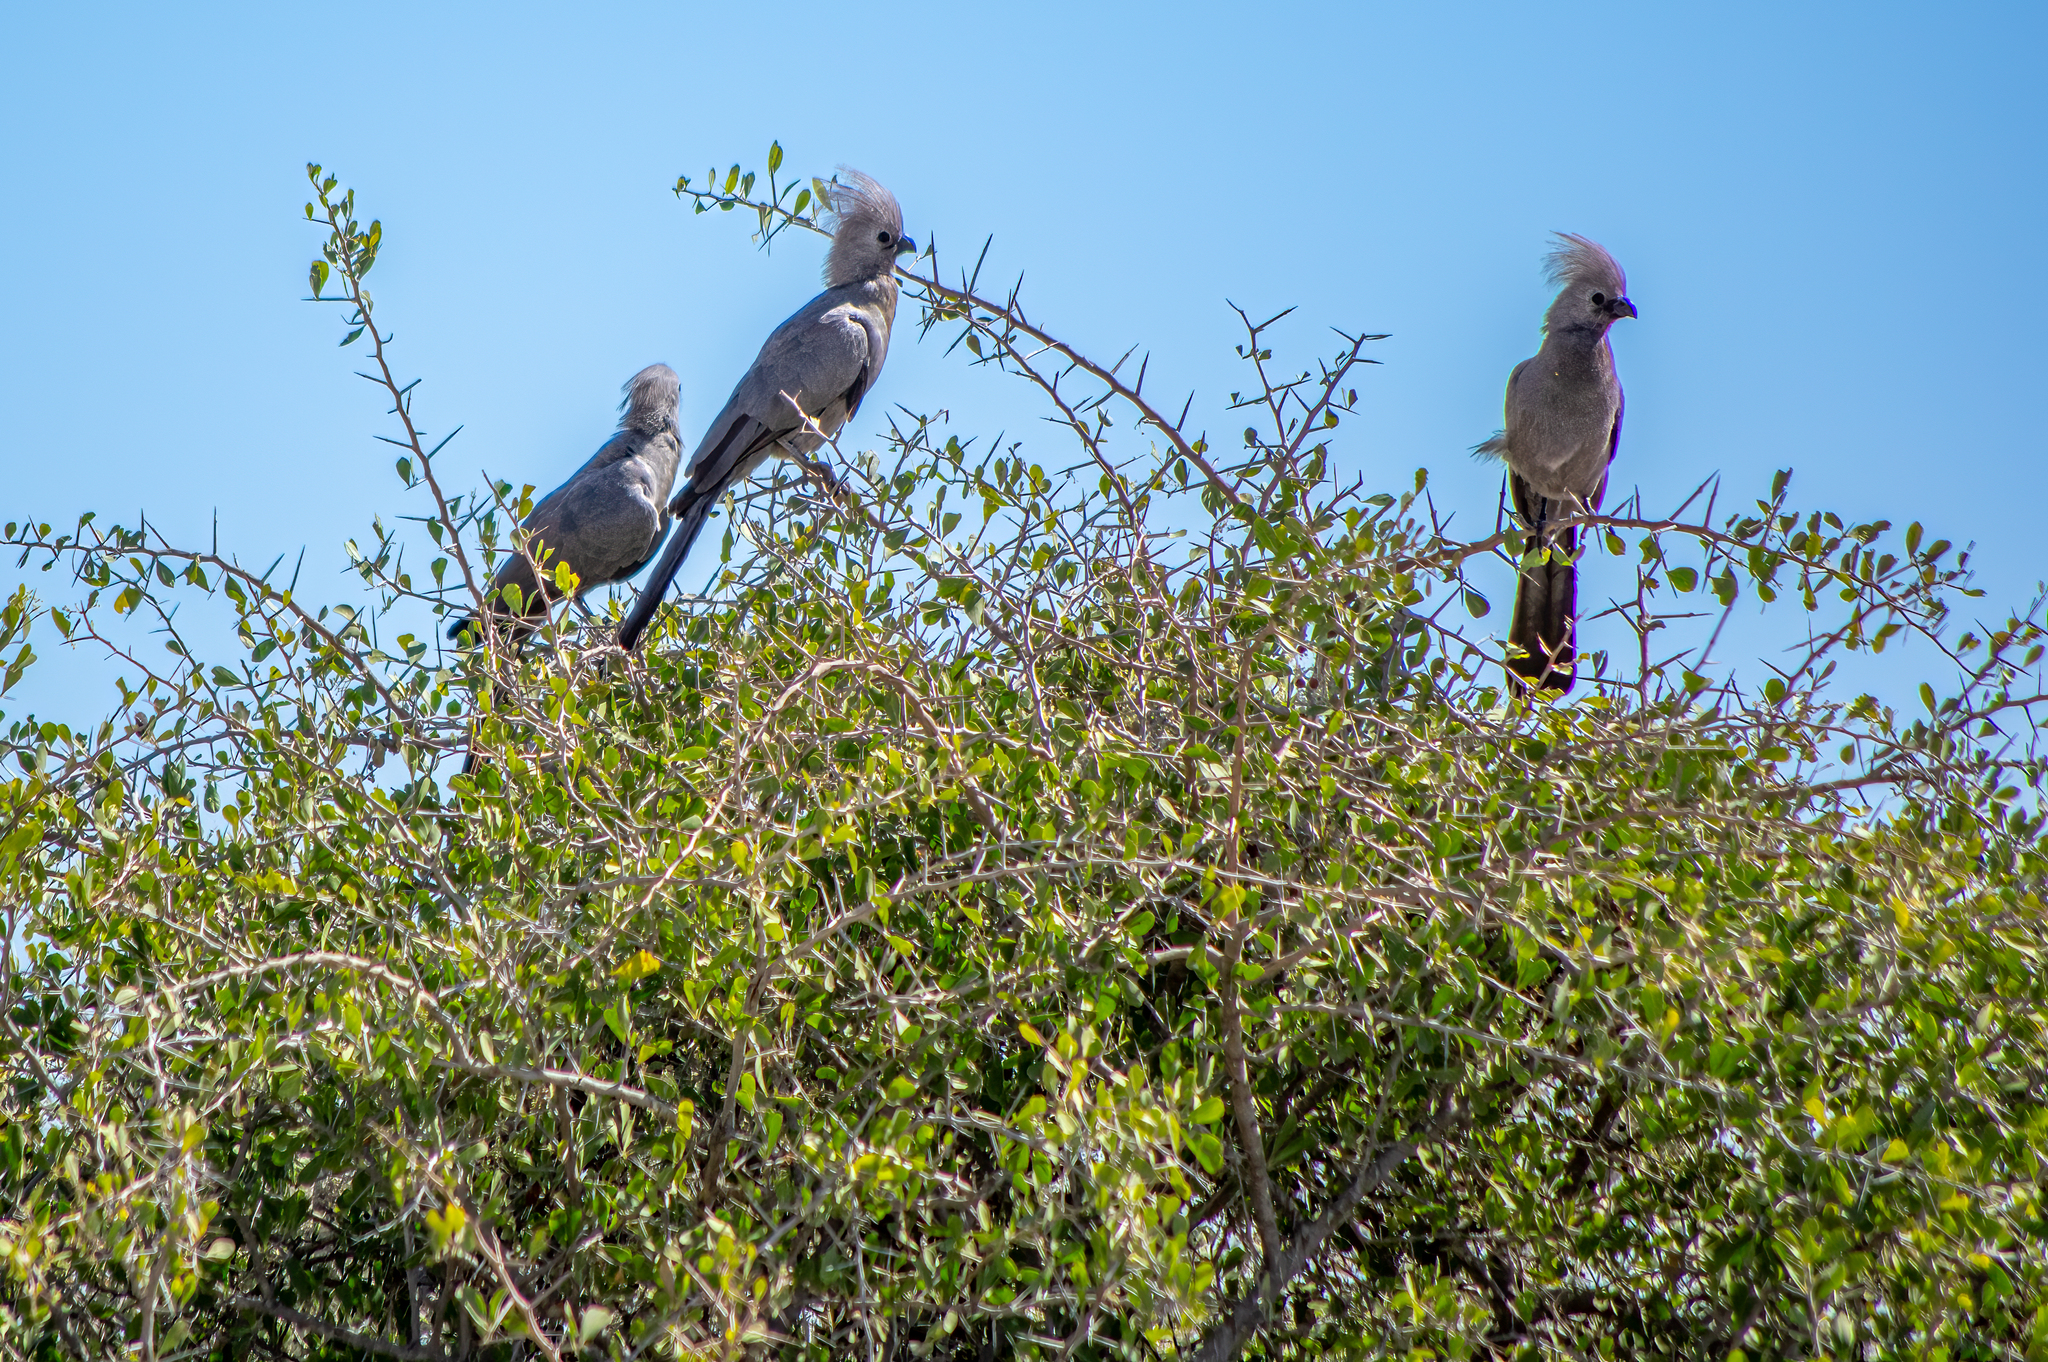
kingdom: Animalia
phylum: Chordata
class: Aves
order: Musophagiformes
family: Musophagidae
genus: Corythaixoides
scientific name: Corythaixoides concolor
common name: Grey go-away-bird
